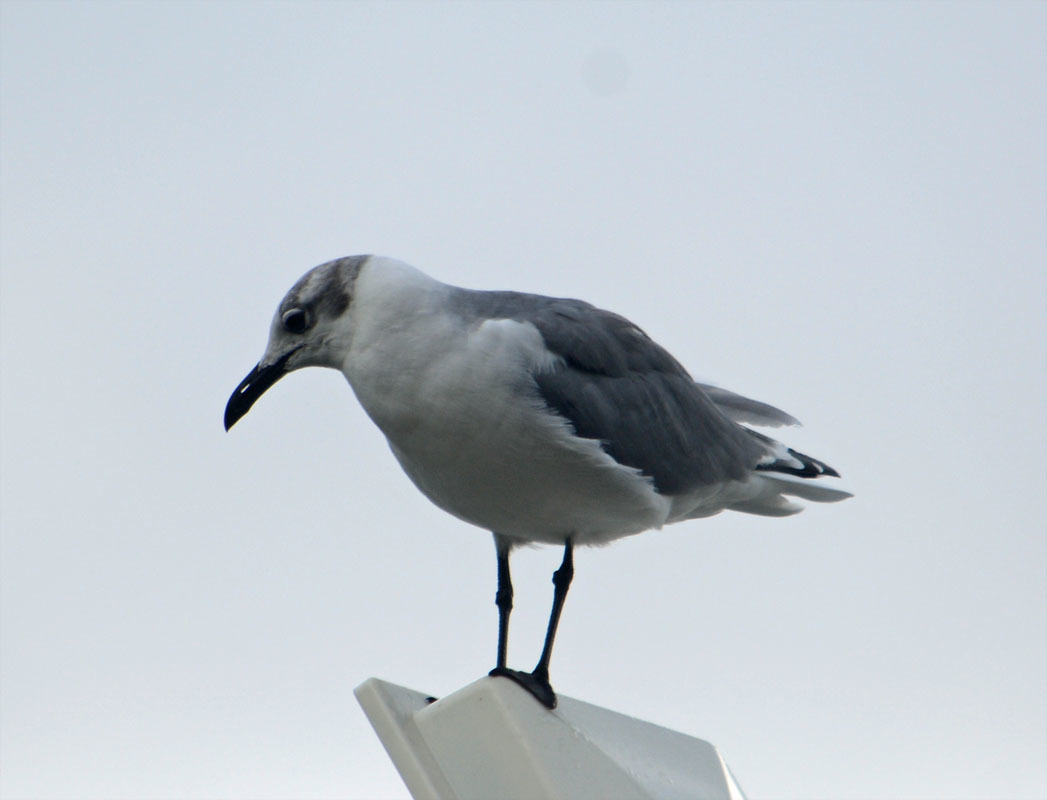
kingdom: Animalia
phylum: Chordata
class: Aves
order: Charadriiformes
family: Laridae
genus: Leucophaeus
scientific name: Leucophaeus atricilla
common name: Laughing gull
